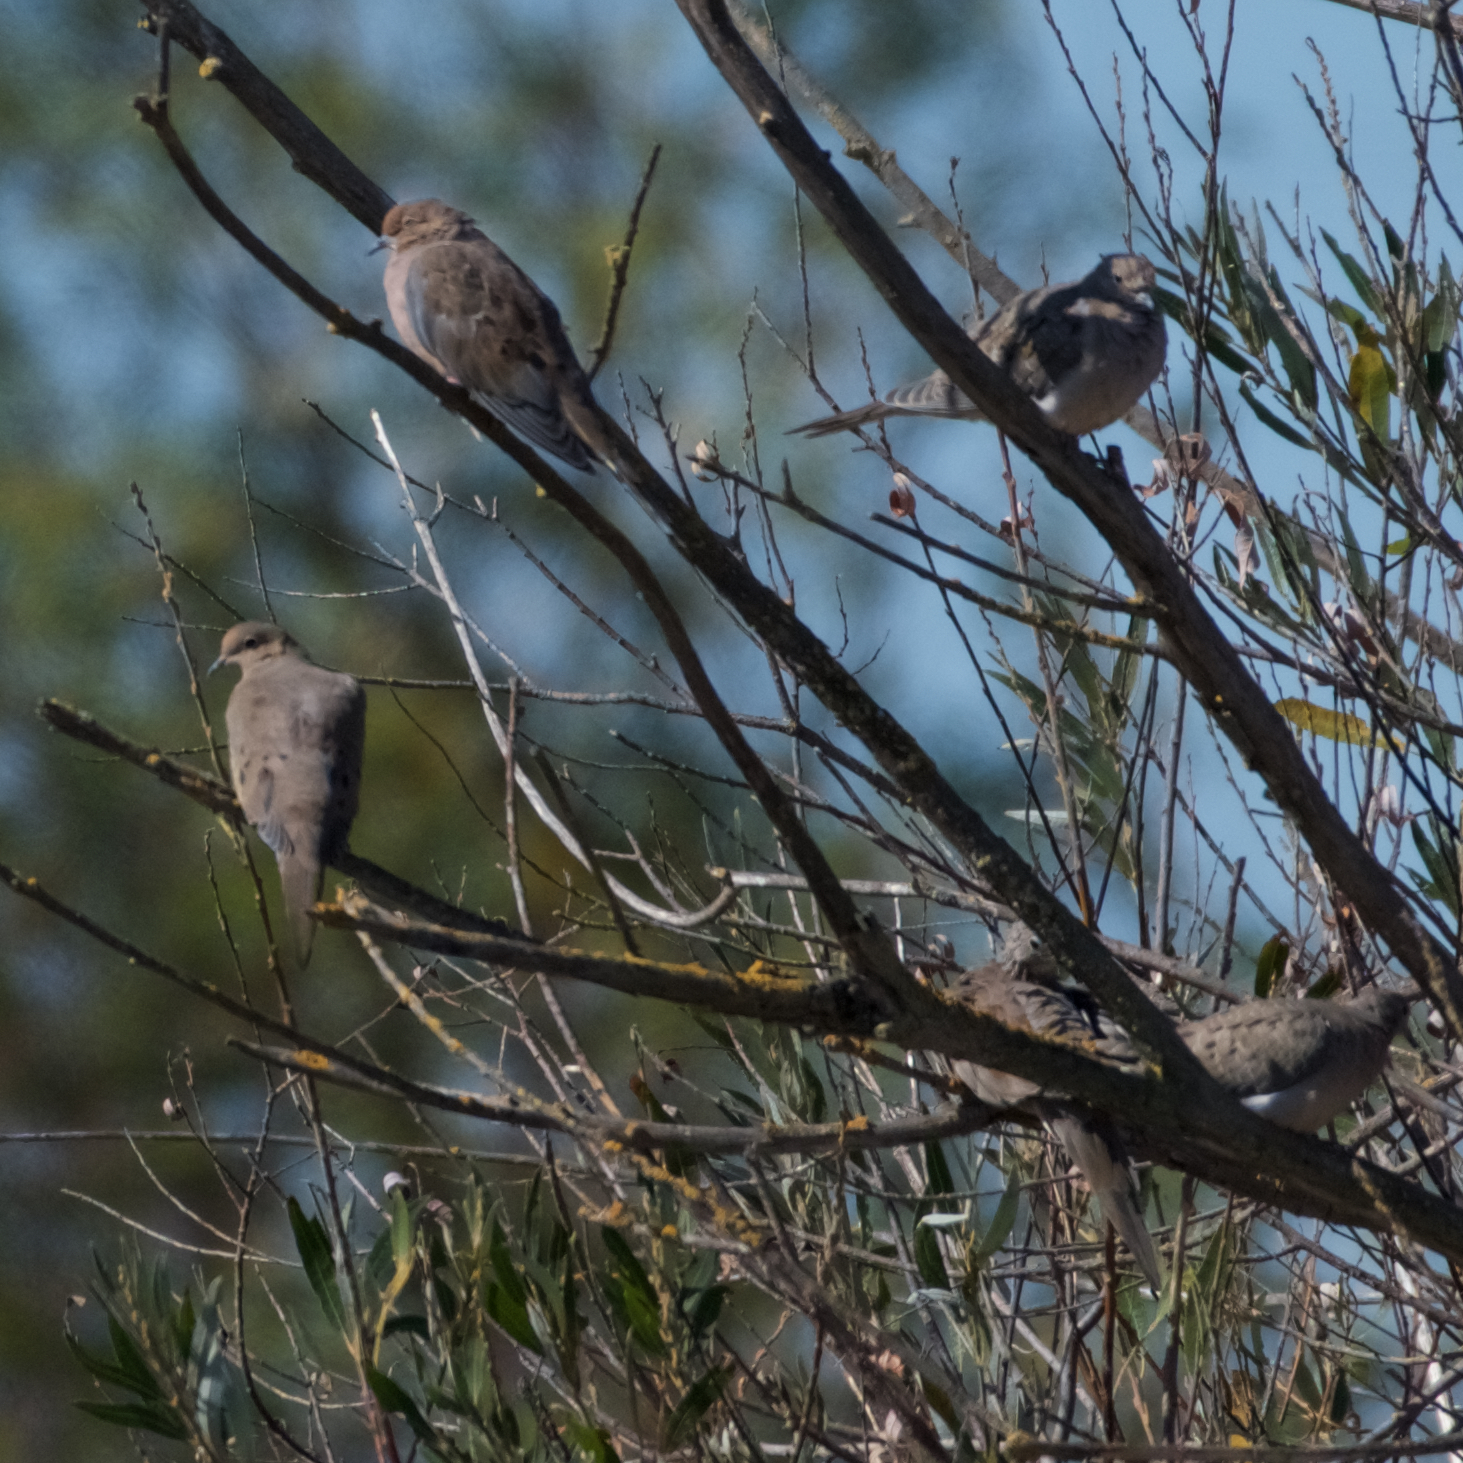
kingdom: Animalia
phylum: Chordata
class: Aves
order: Columbiformes
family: Columbidae
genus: Zenaida
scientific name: Zenaida macroura
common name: Mourning dove
